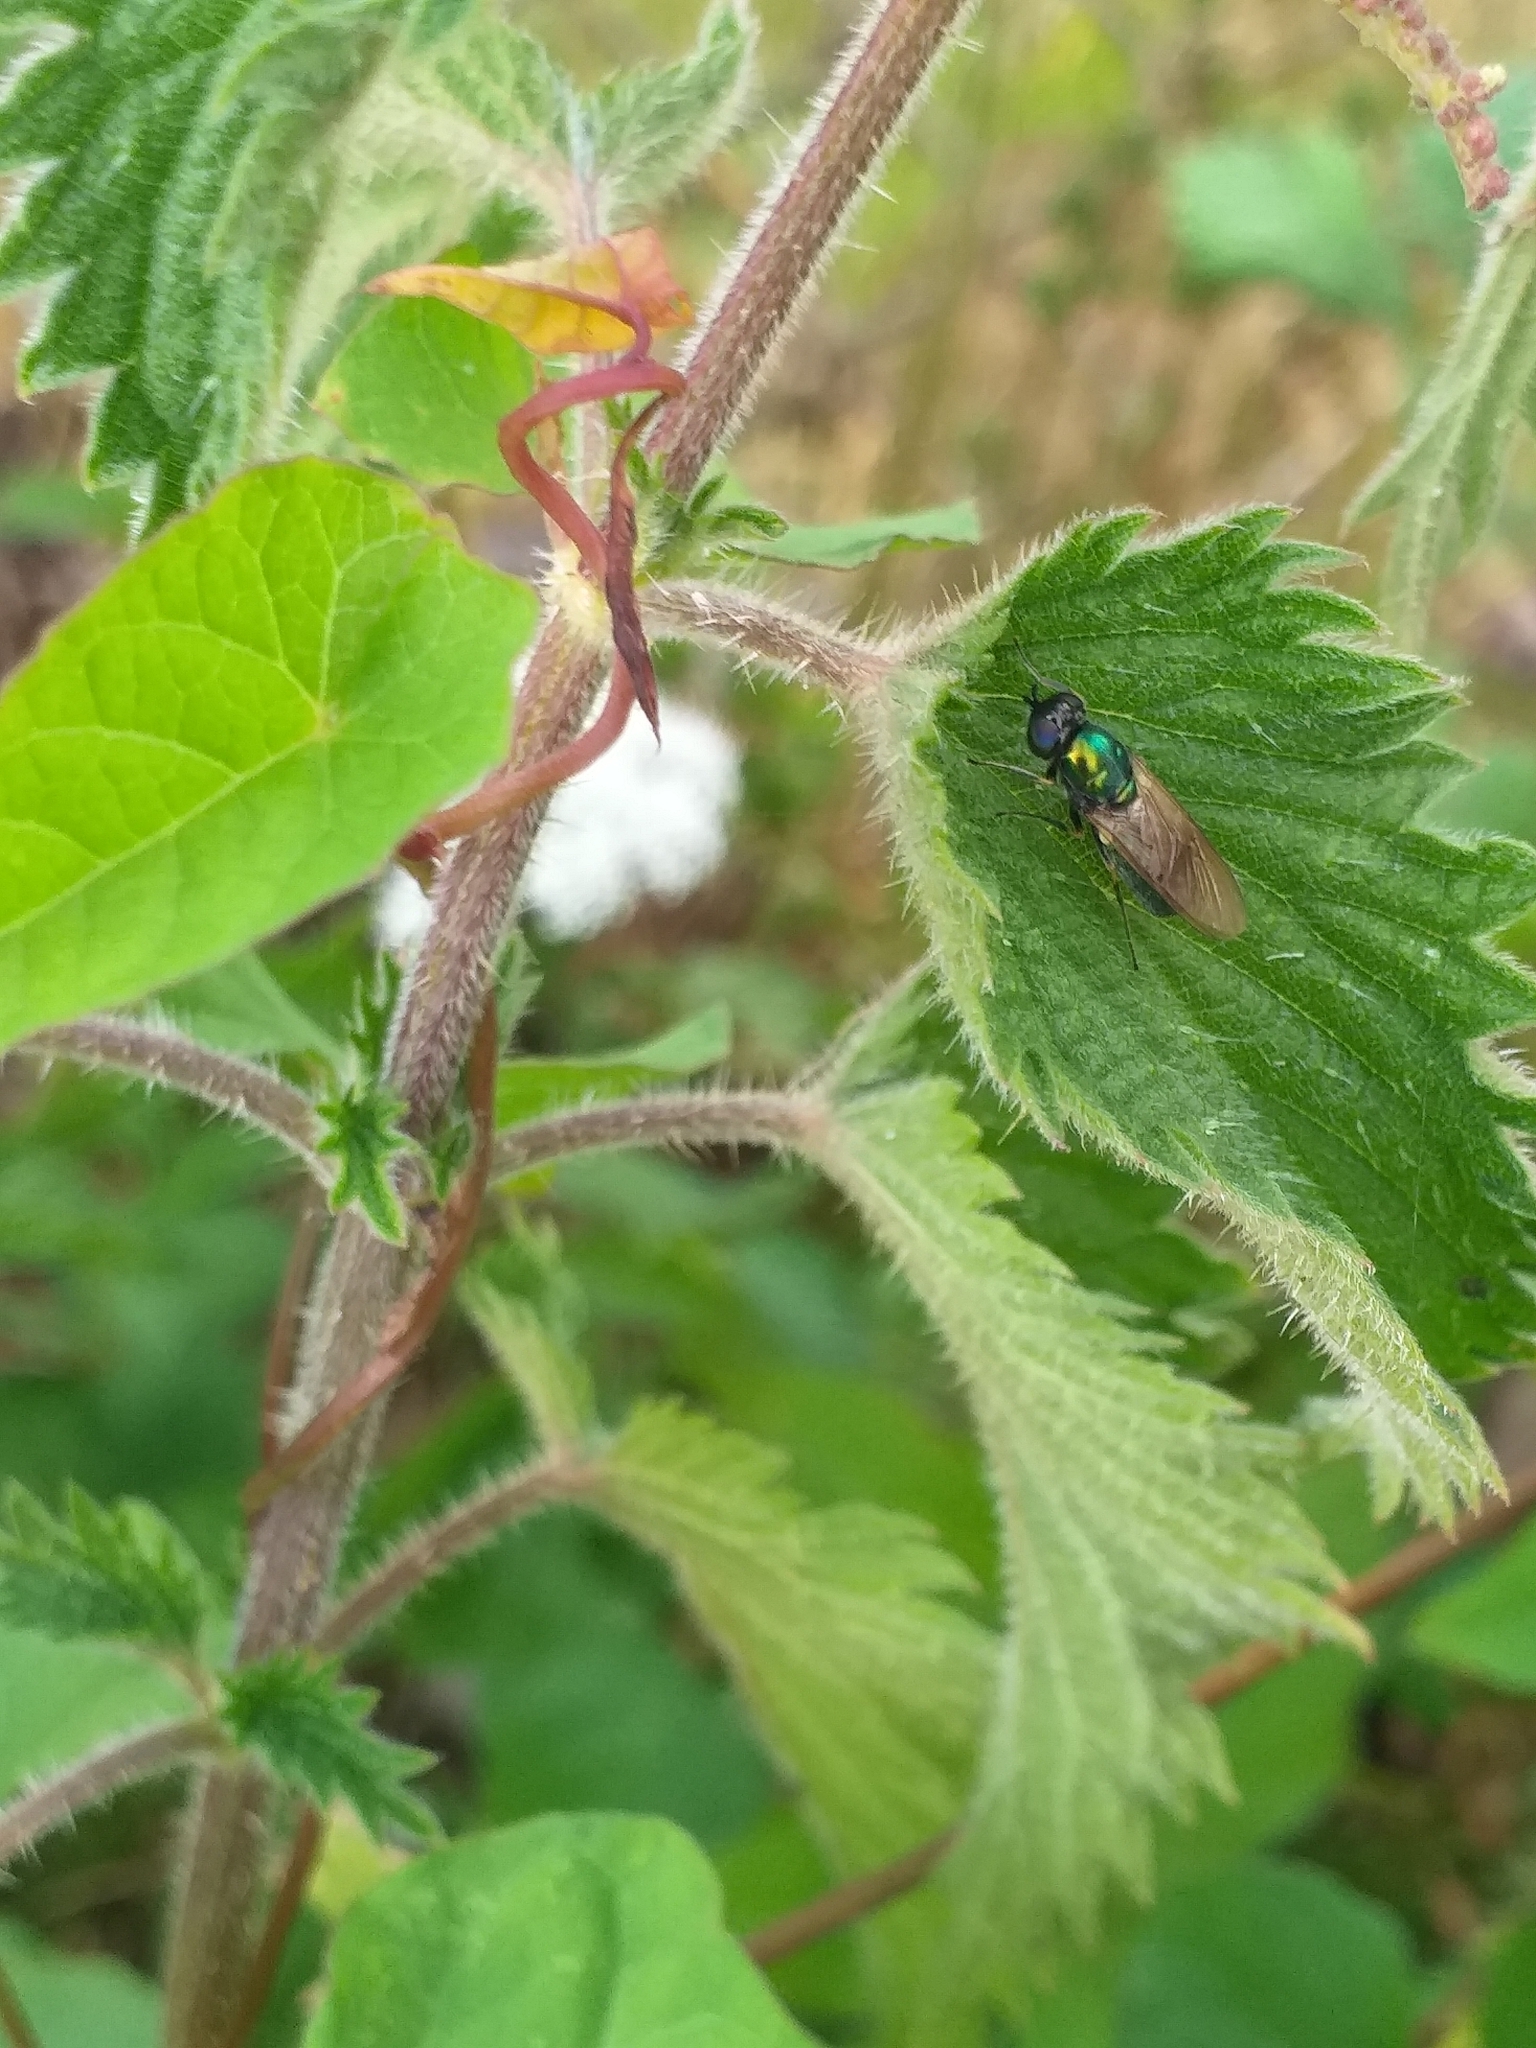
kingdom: Animalia
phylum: Arthropoda
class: Insecta
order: Diptera
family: Stratiomyidae
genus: Chloromyia
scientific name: Chloromyia formosa
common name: Soldier fly
